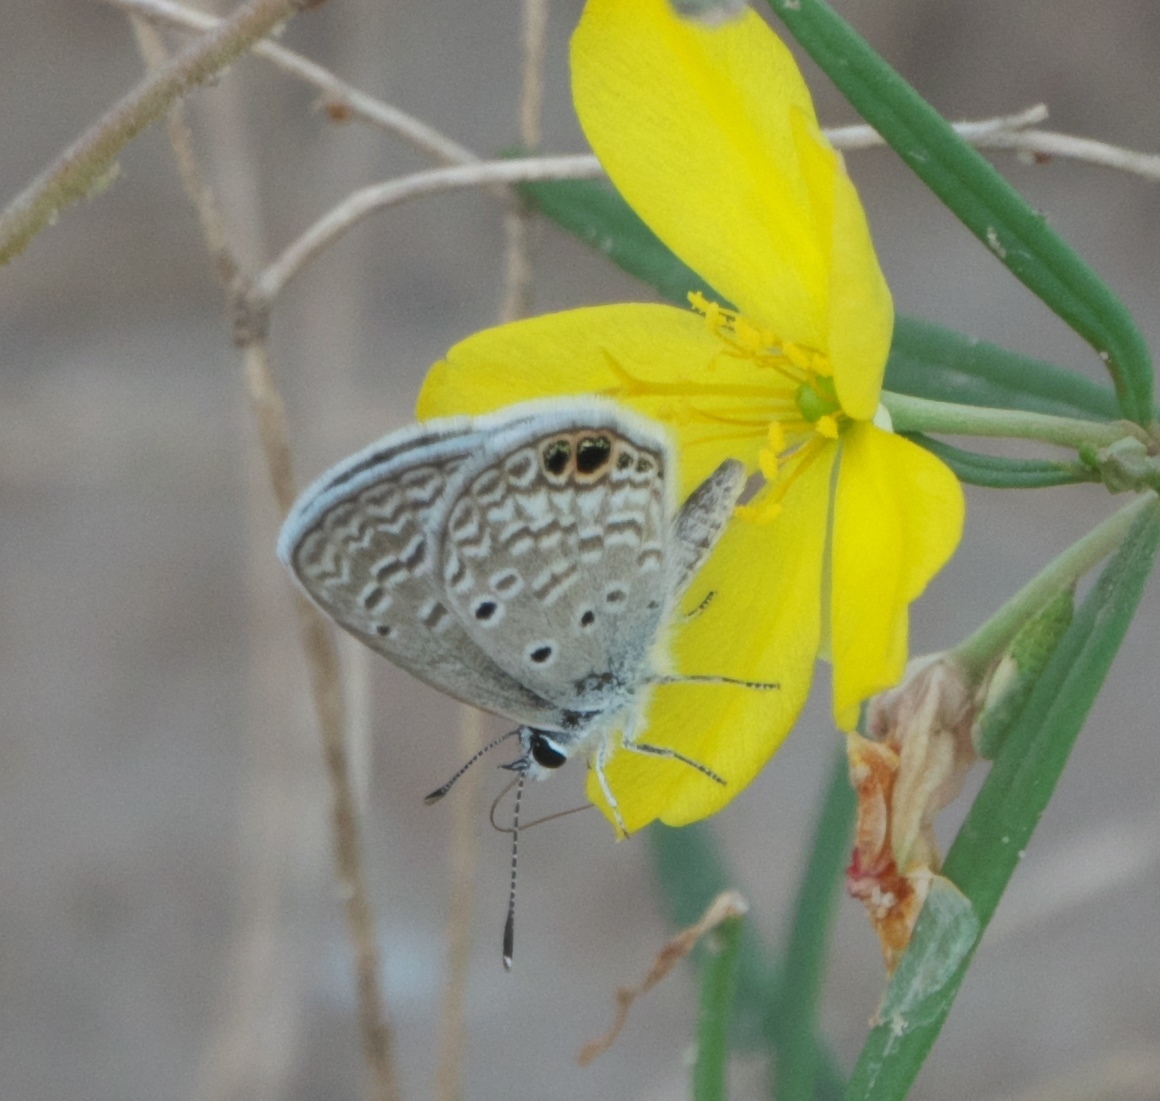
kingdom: Animalia
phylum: Arthropoda
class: Insecta
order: Lepidoptera
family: Lycaenidae
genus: Hemiargus
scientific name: Hemiargus ceraunus
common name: Ceraunus blue
